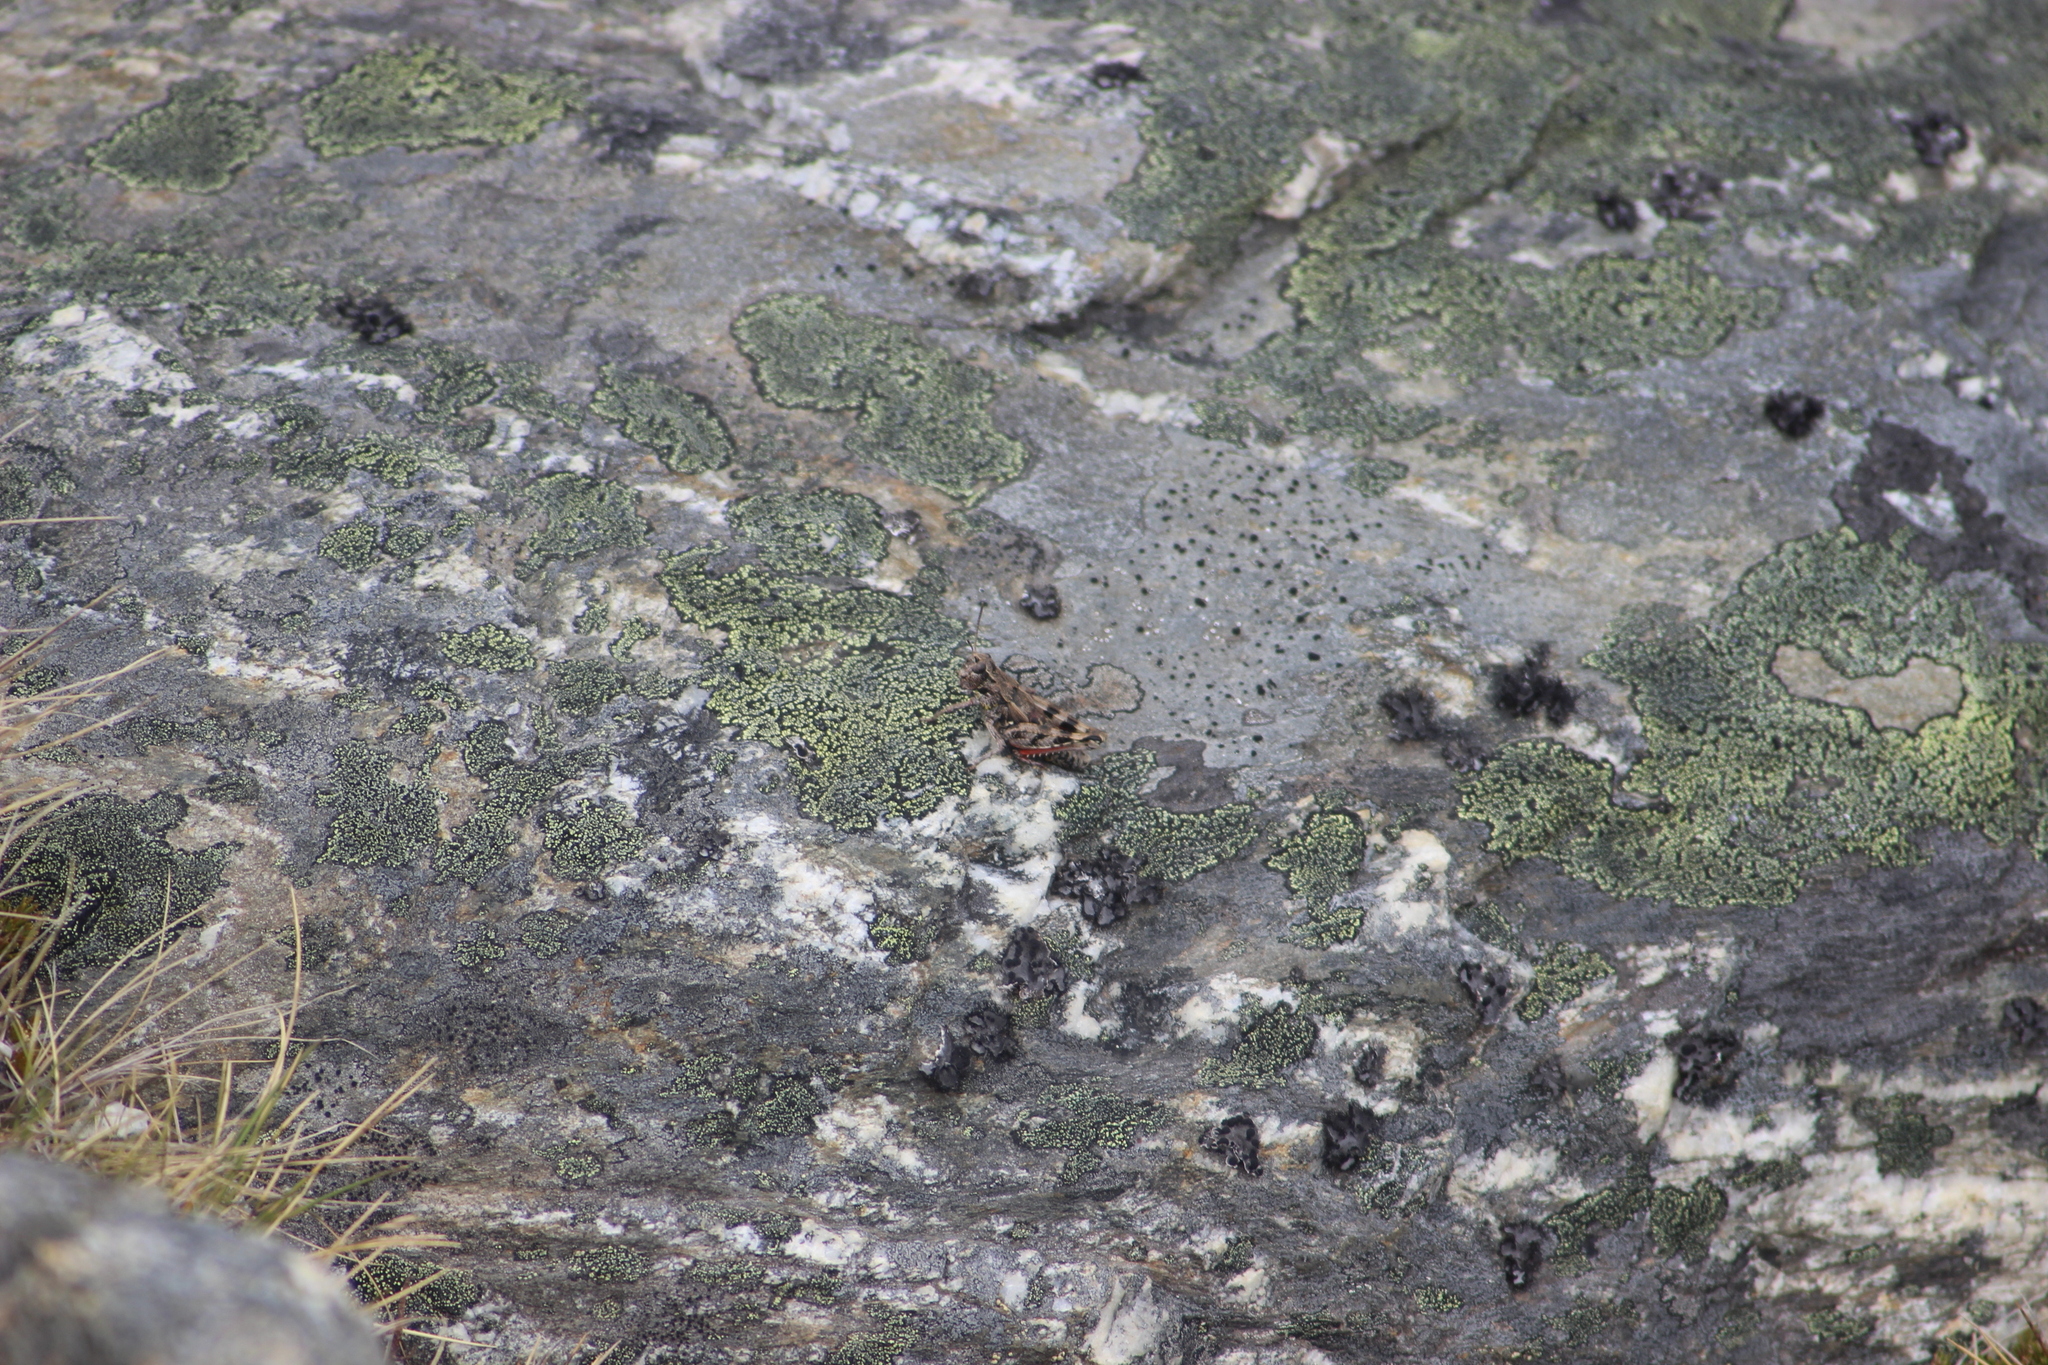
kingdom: Animalia
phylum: Arthropoda
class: Insecta
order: Orthoptera
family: Acrididae
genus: Sigaus
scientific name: Sigaus australis
